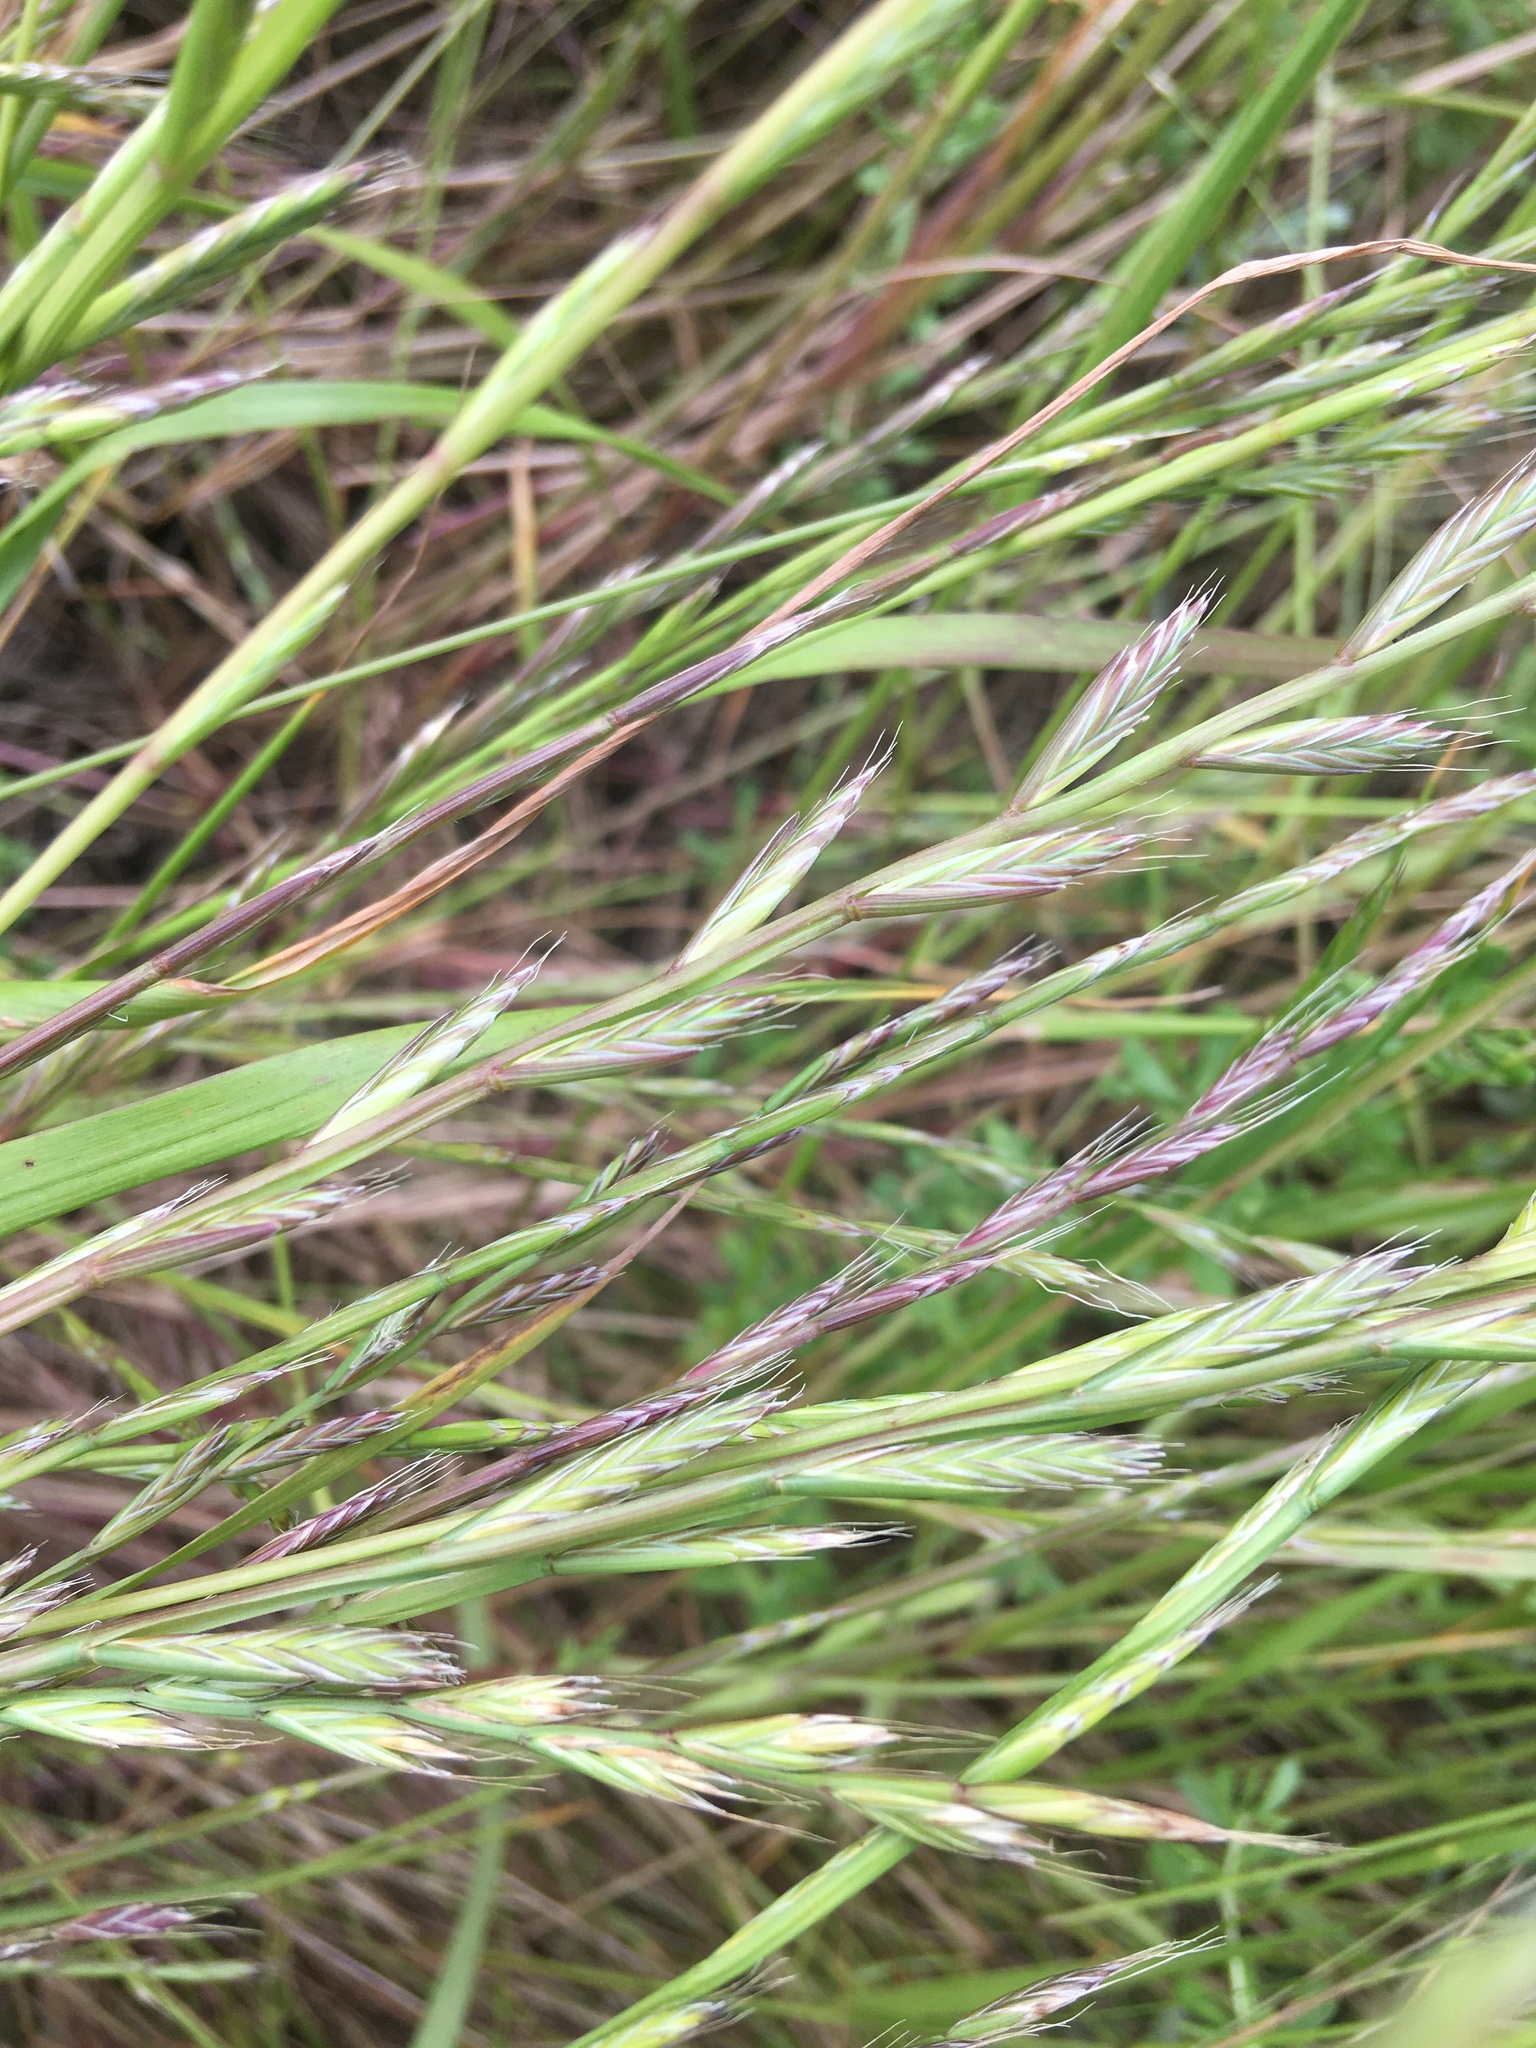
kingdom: Plantae
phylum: Tracheophyta
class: Liliopsida
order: Poales
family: Poaceae
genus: Lolium
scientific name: Lolium multiflorum
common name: Annual ryegrass
